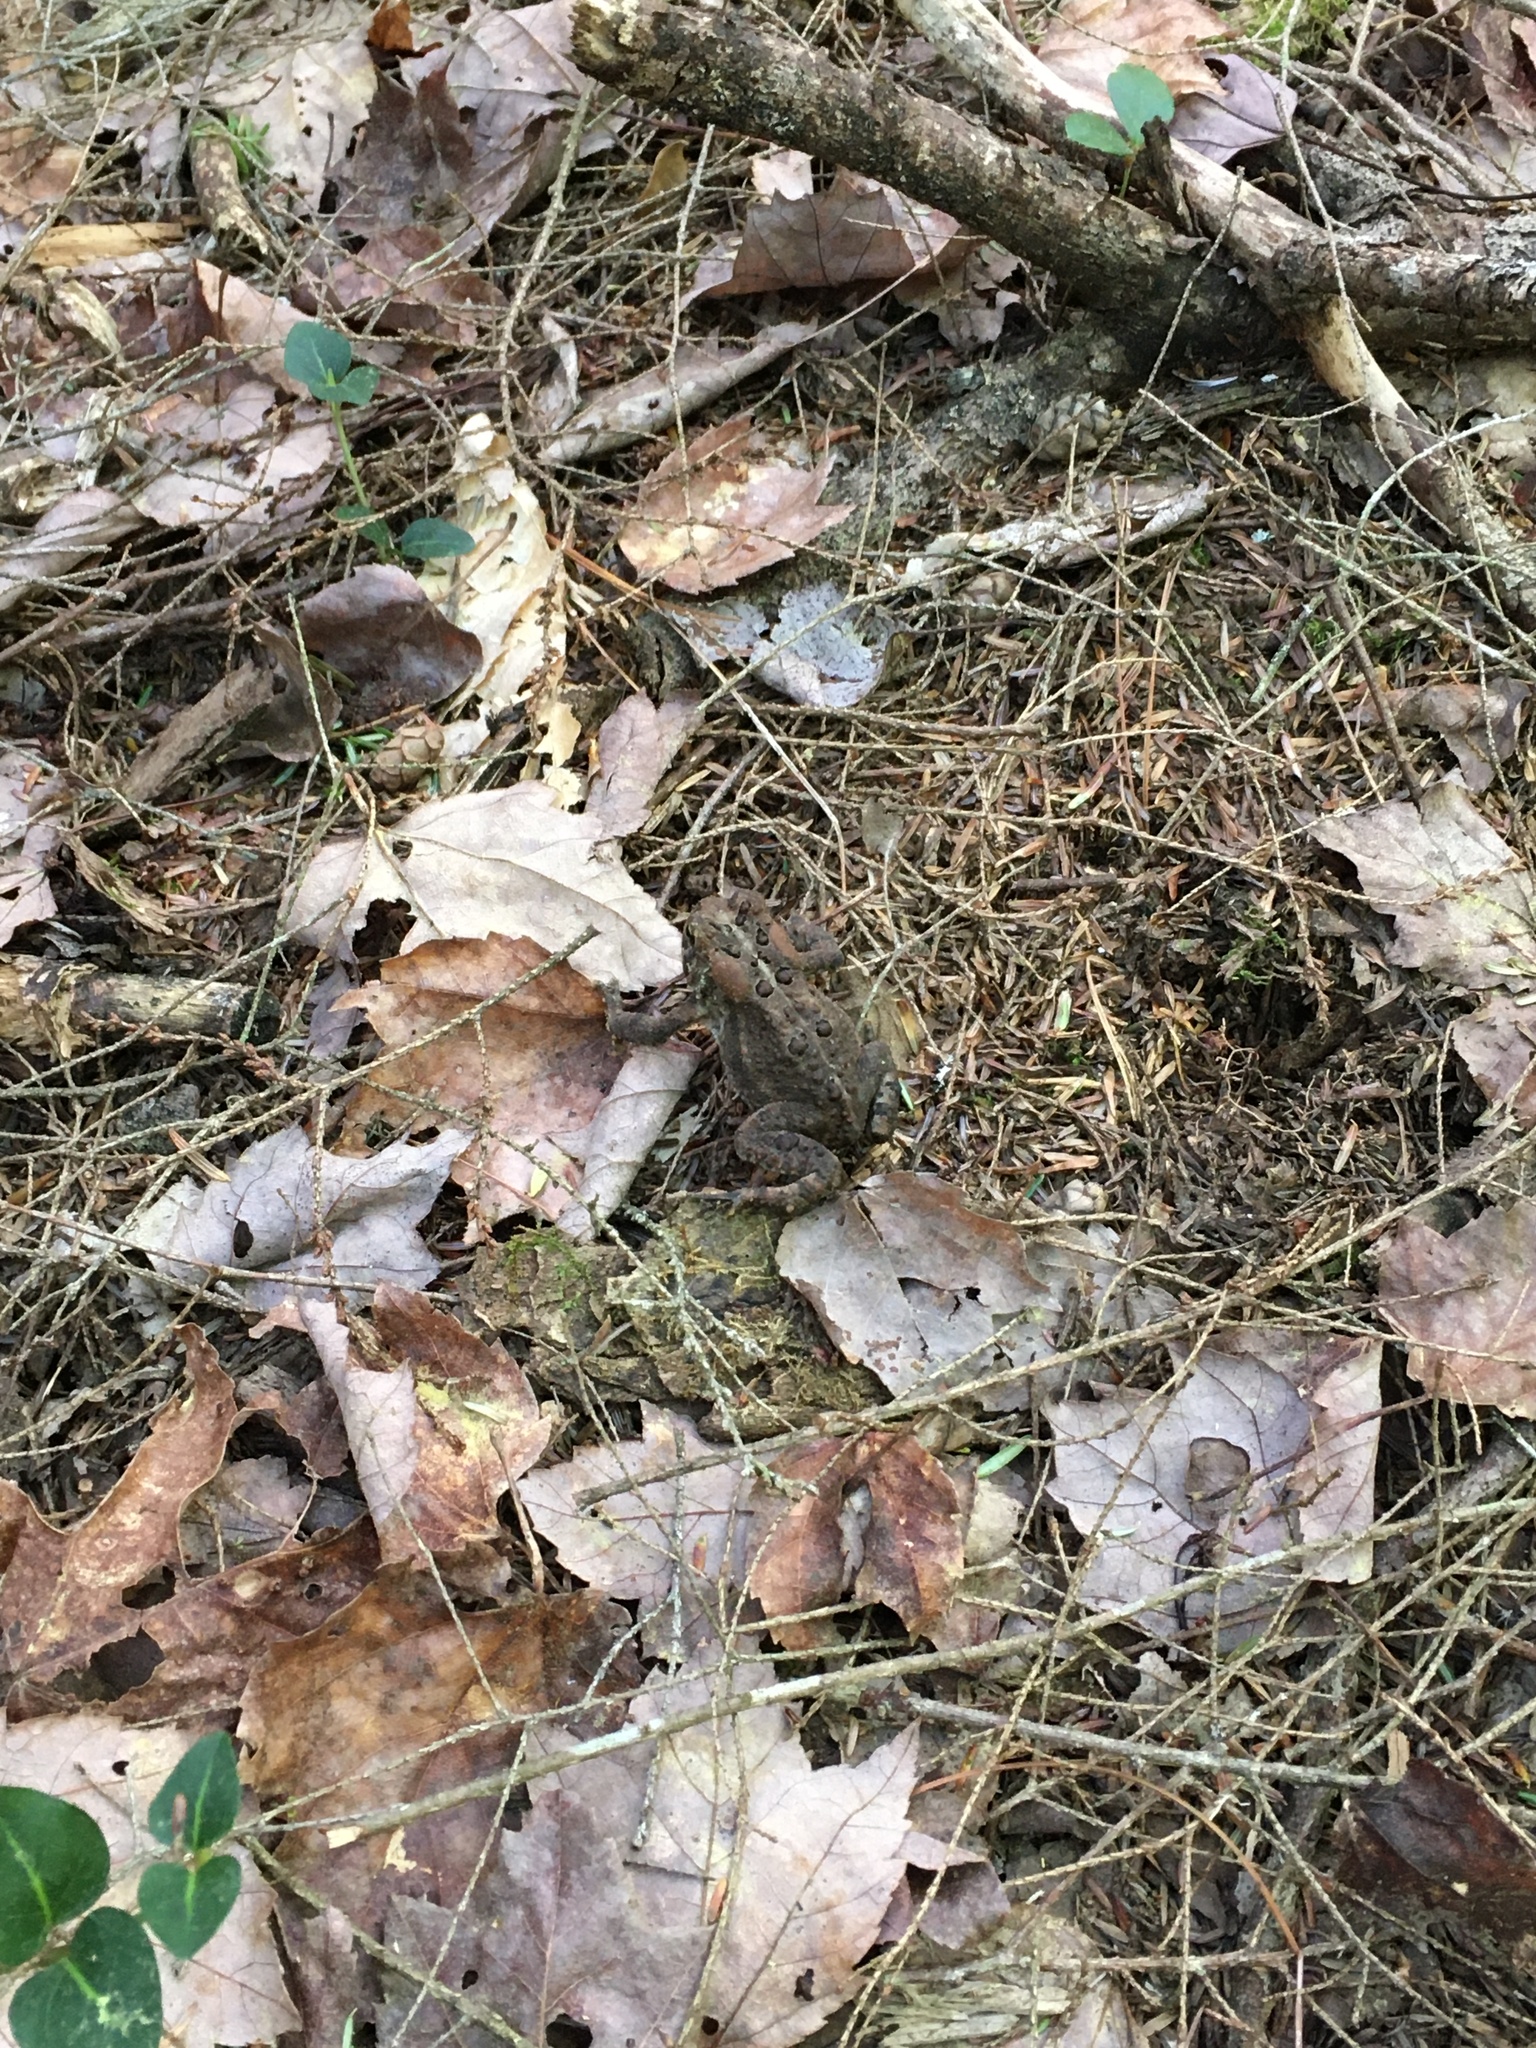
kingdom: Animalia
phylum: Chordata
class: Amphibia
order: Anura
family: Bufonidae
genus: Anaxyrus
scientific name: Anaxyrus americanus
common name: American toad
